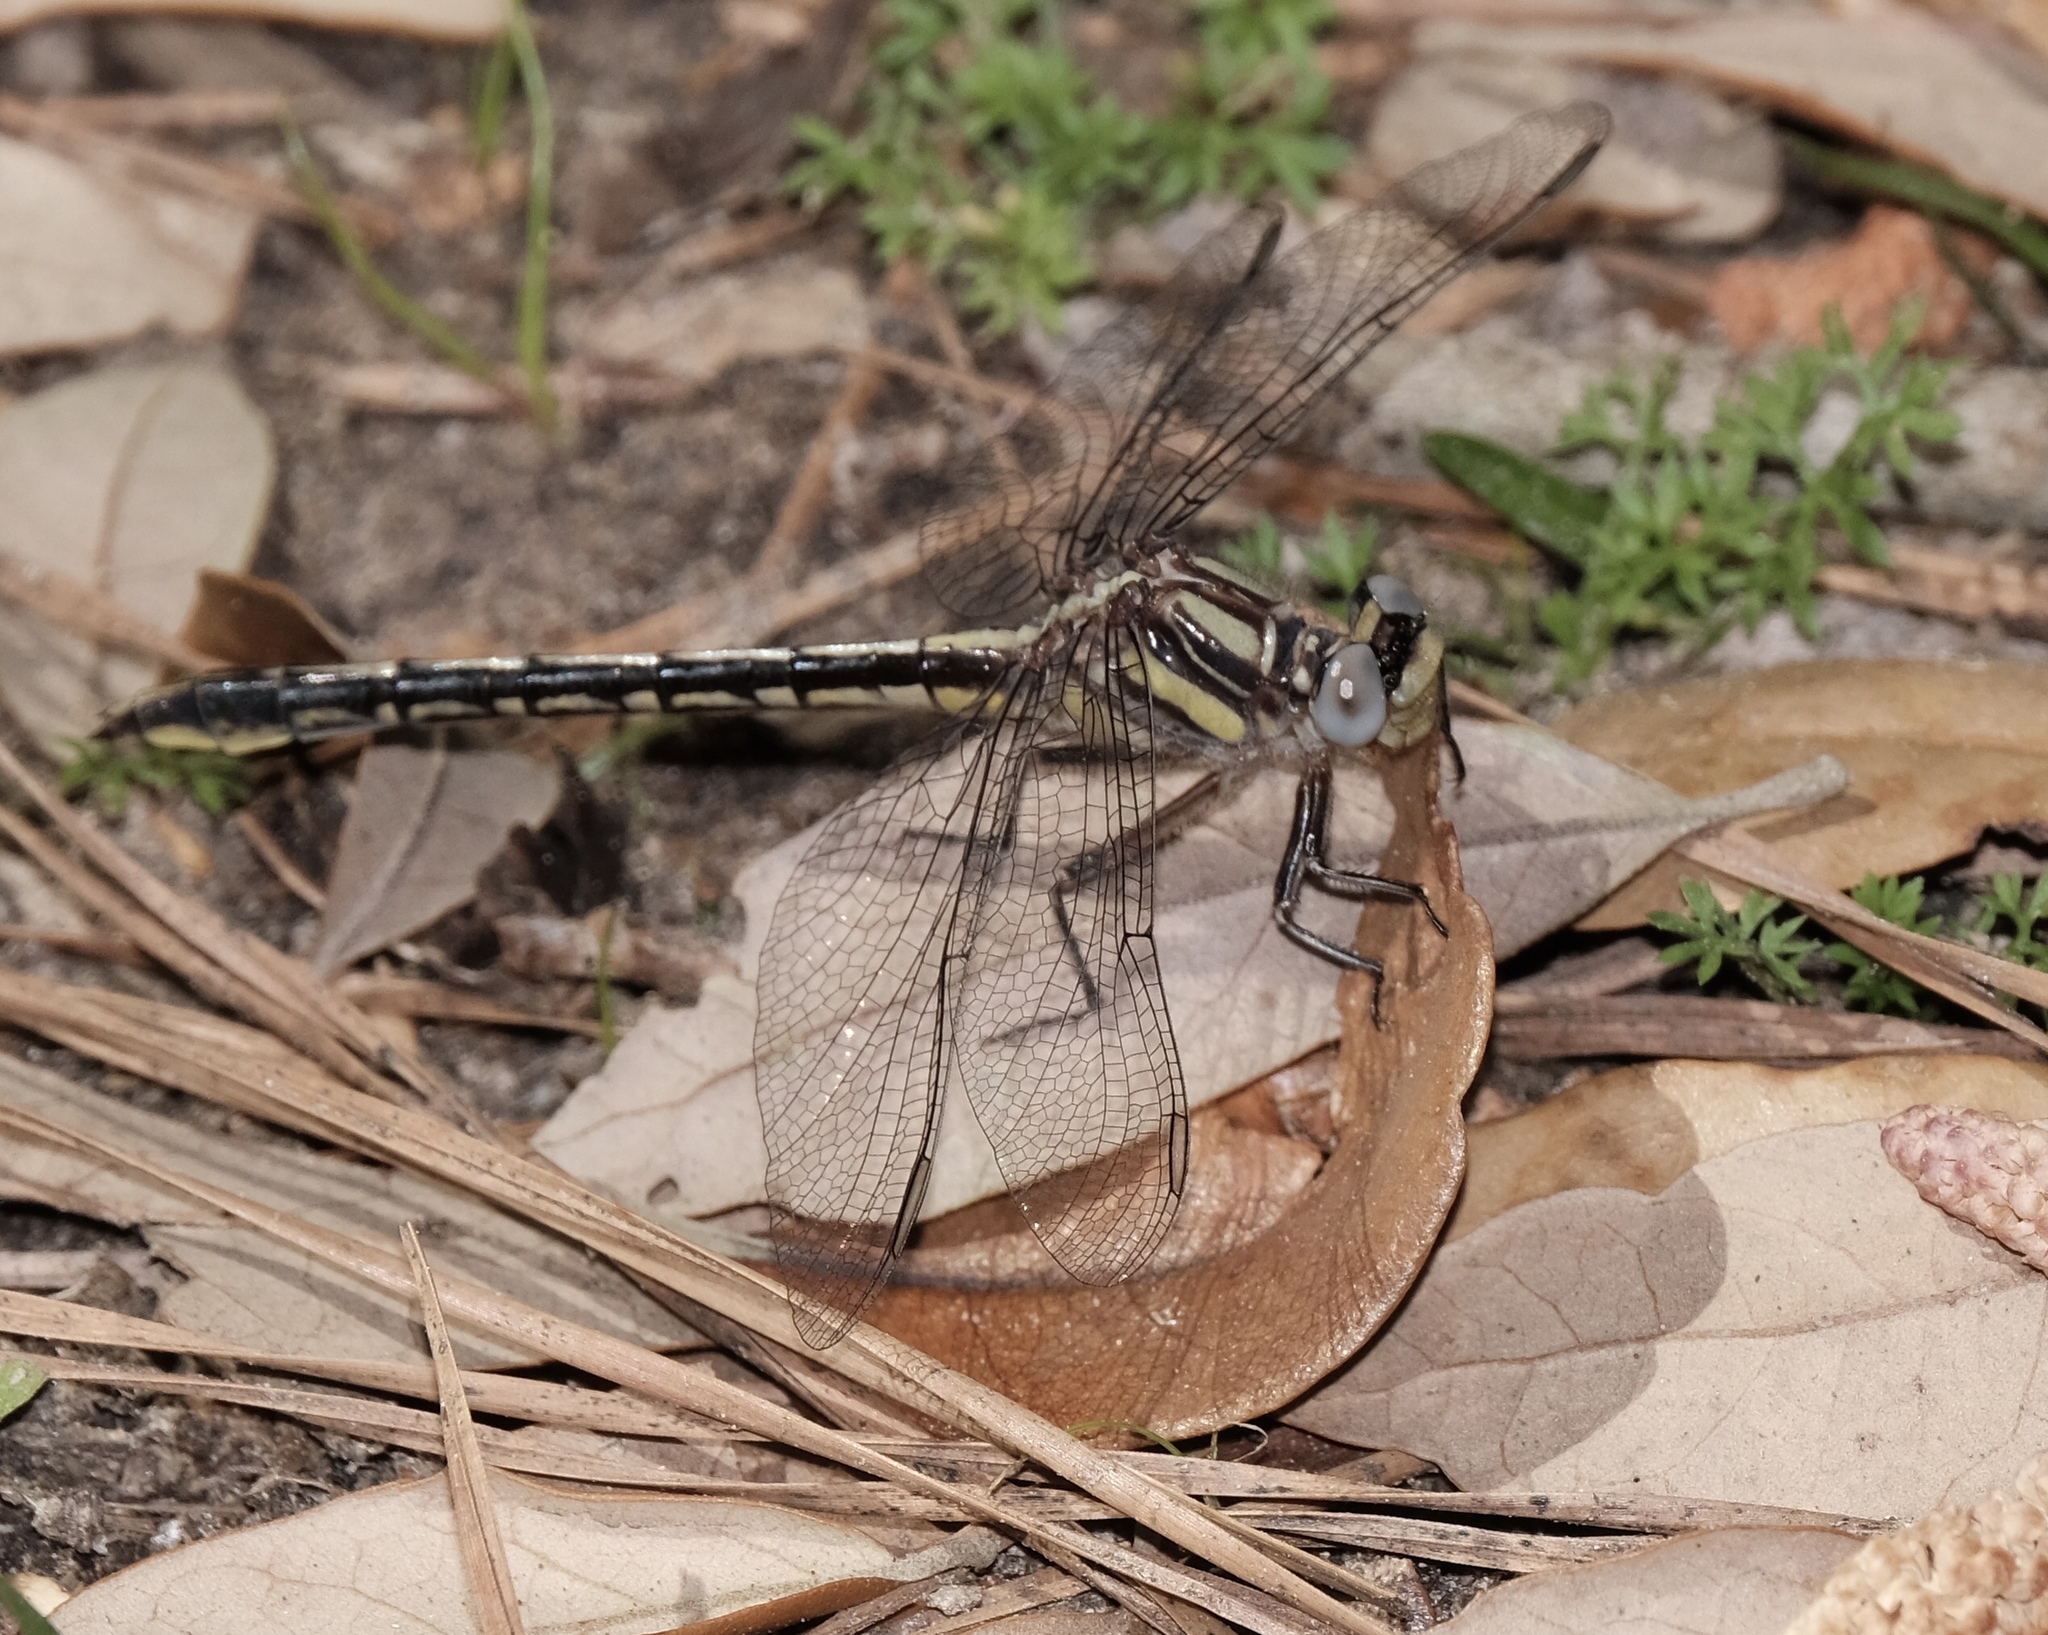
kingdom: Animalia
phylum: Arthropoda
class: Insecta
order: Odonata
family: Gomphidae
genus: Phanogomphus
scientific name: Phanogomphus oklahomensis
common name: Oklahoma clubtail
